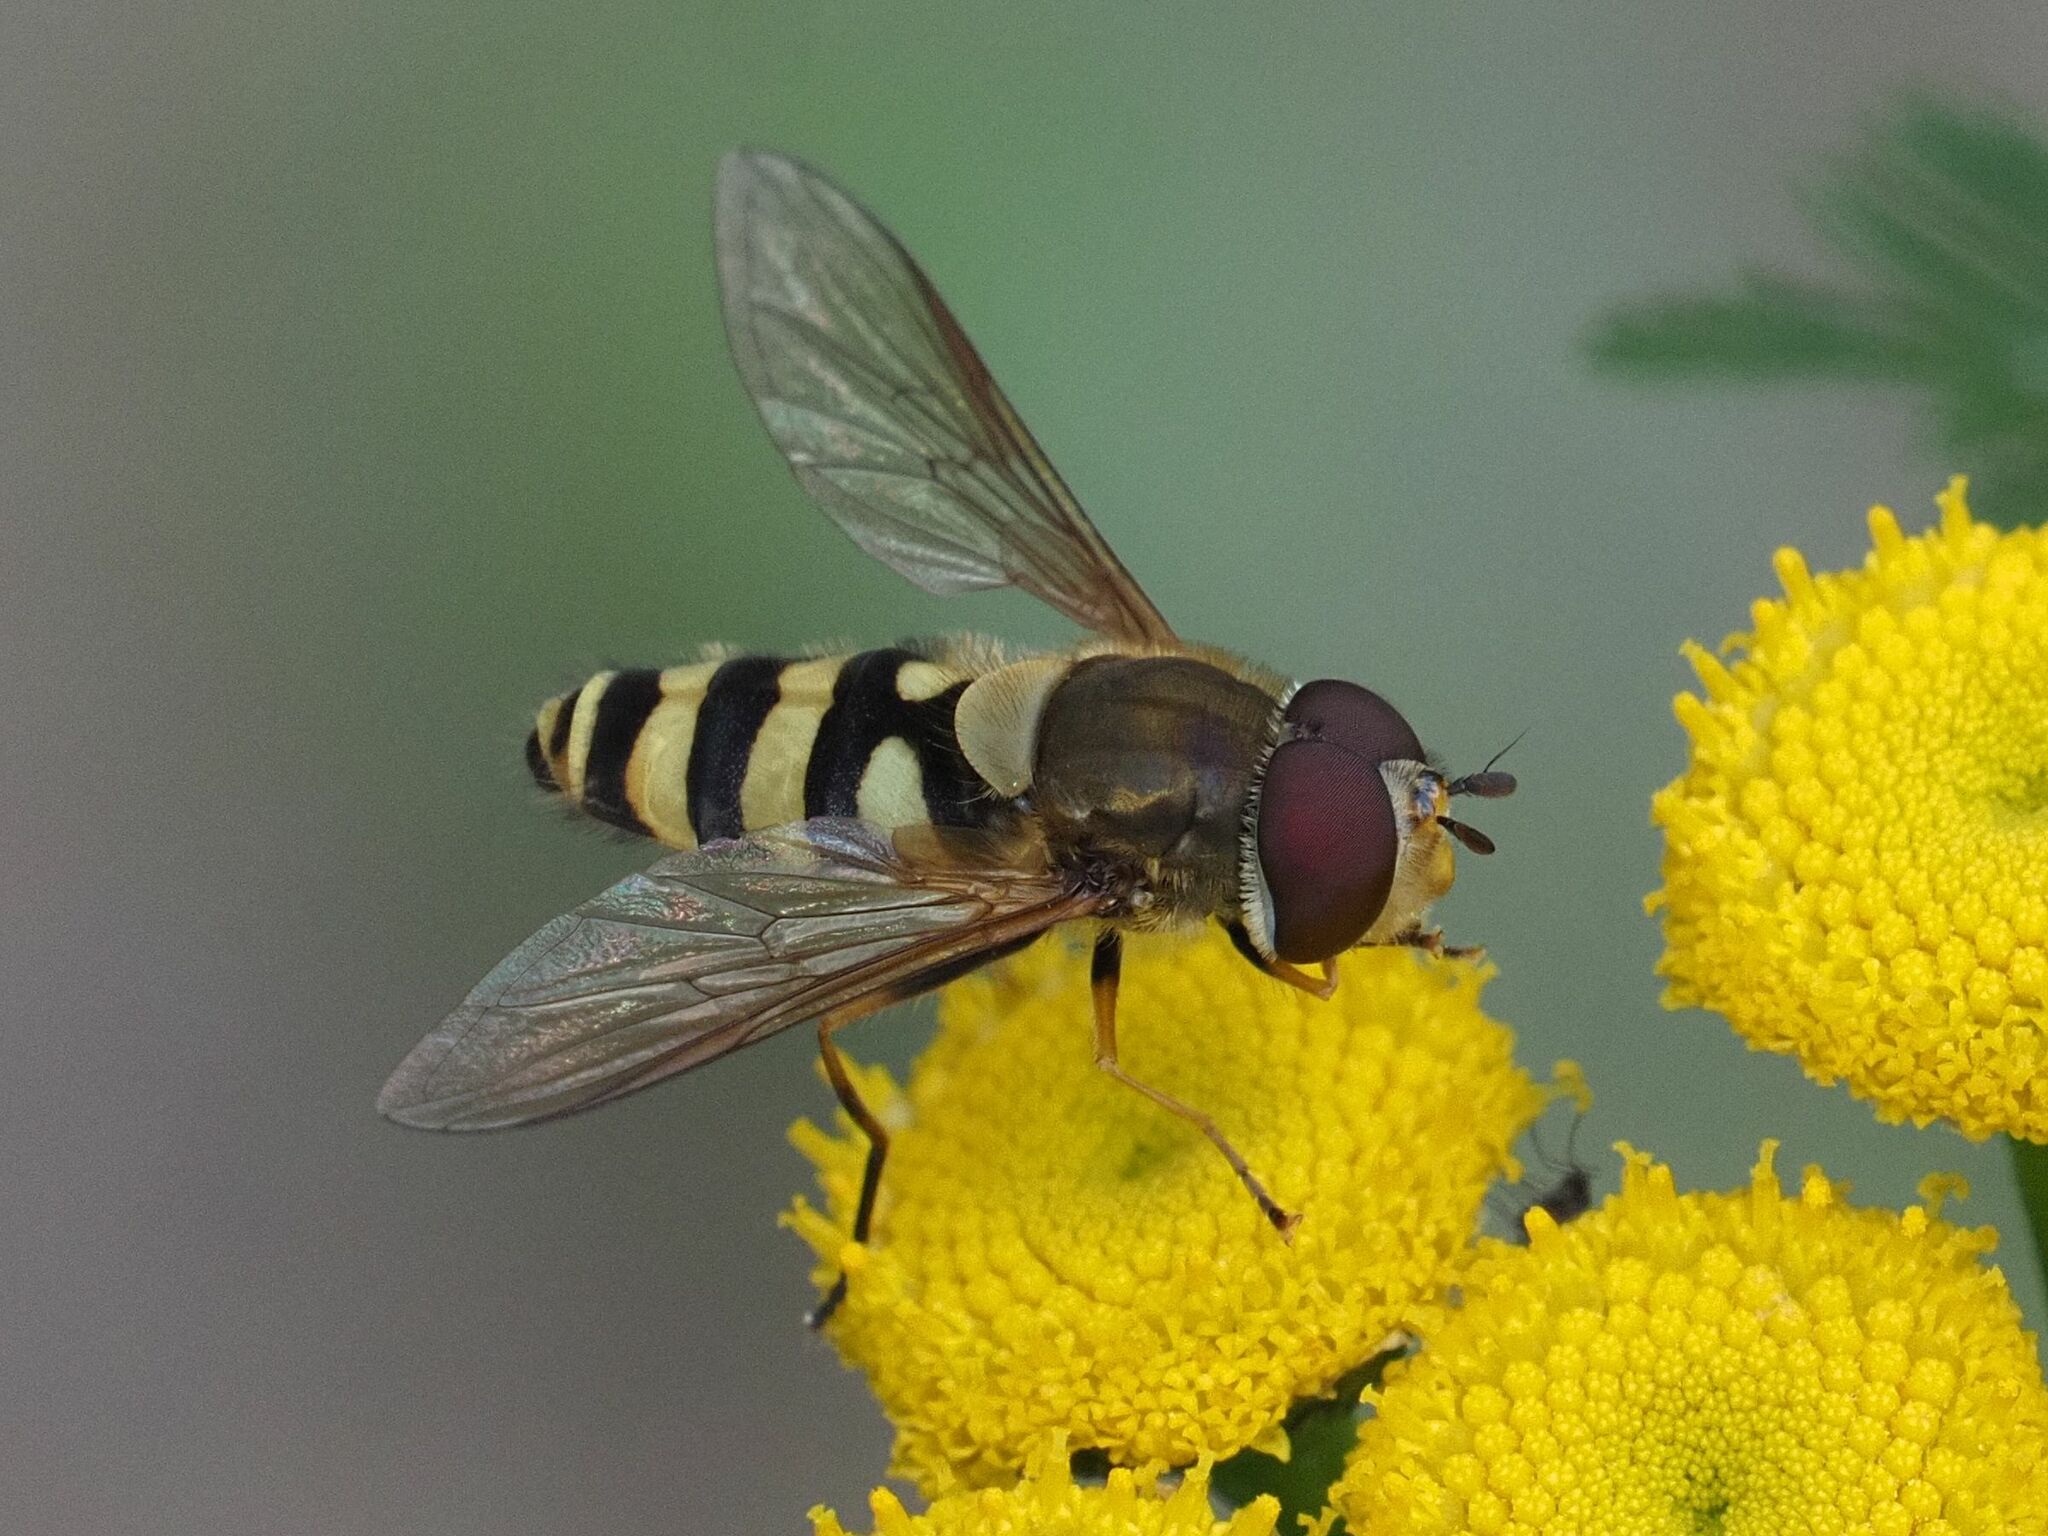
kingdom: Animalia
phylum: Arthropoda
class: Insecta
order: Diptera
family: Syrphidae
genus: Syrphus
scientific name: Syrphus
